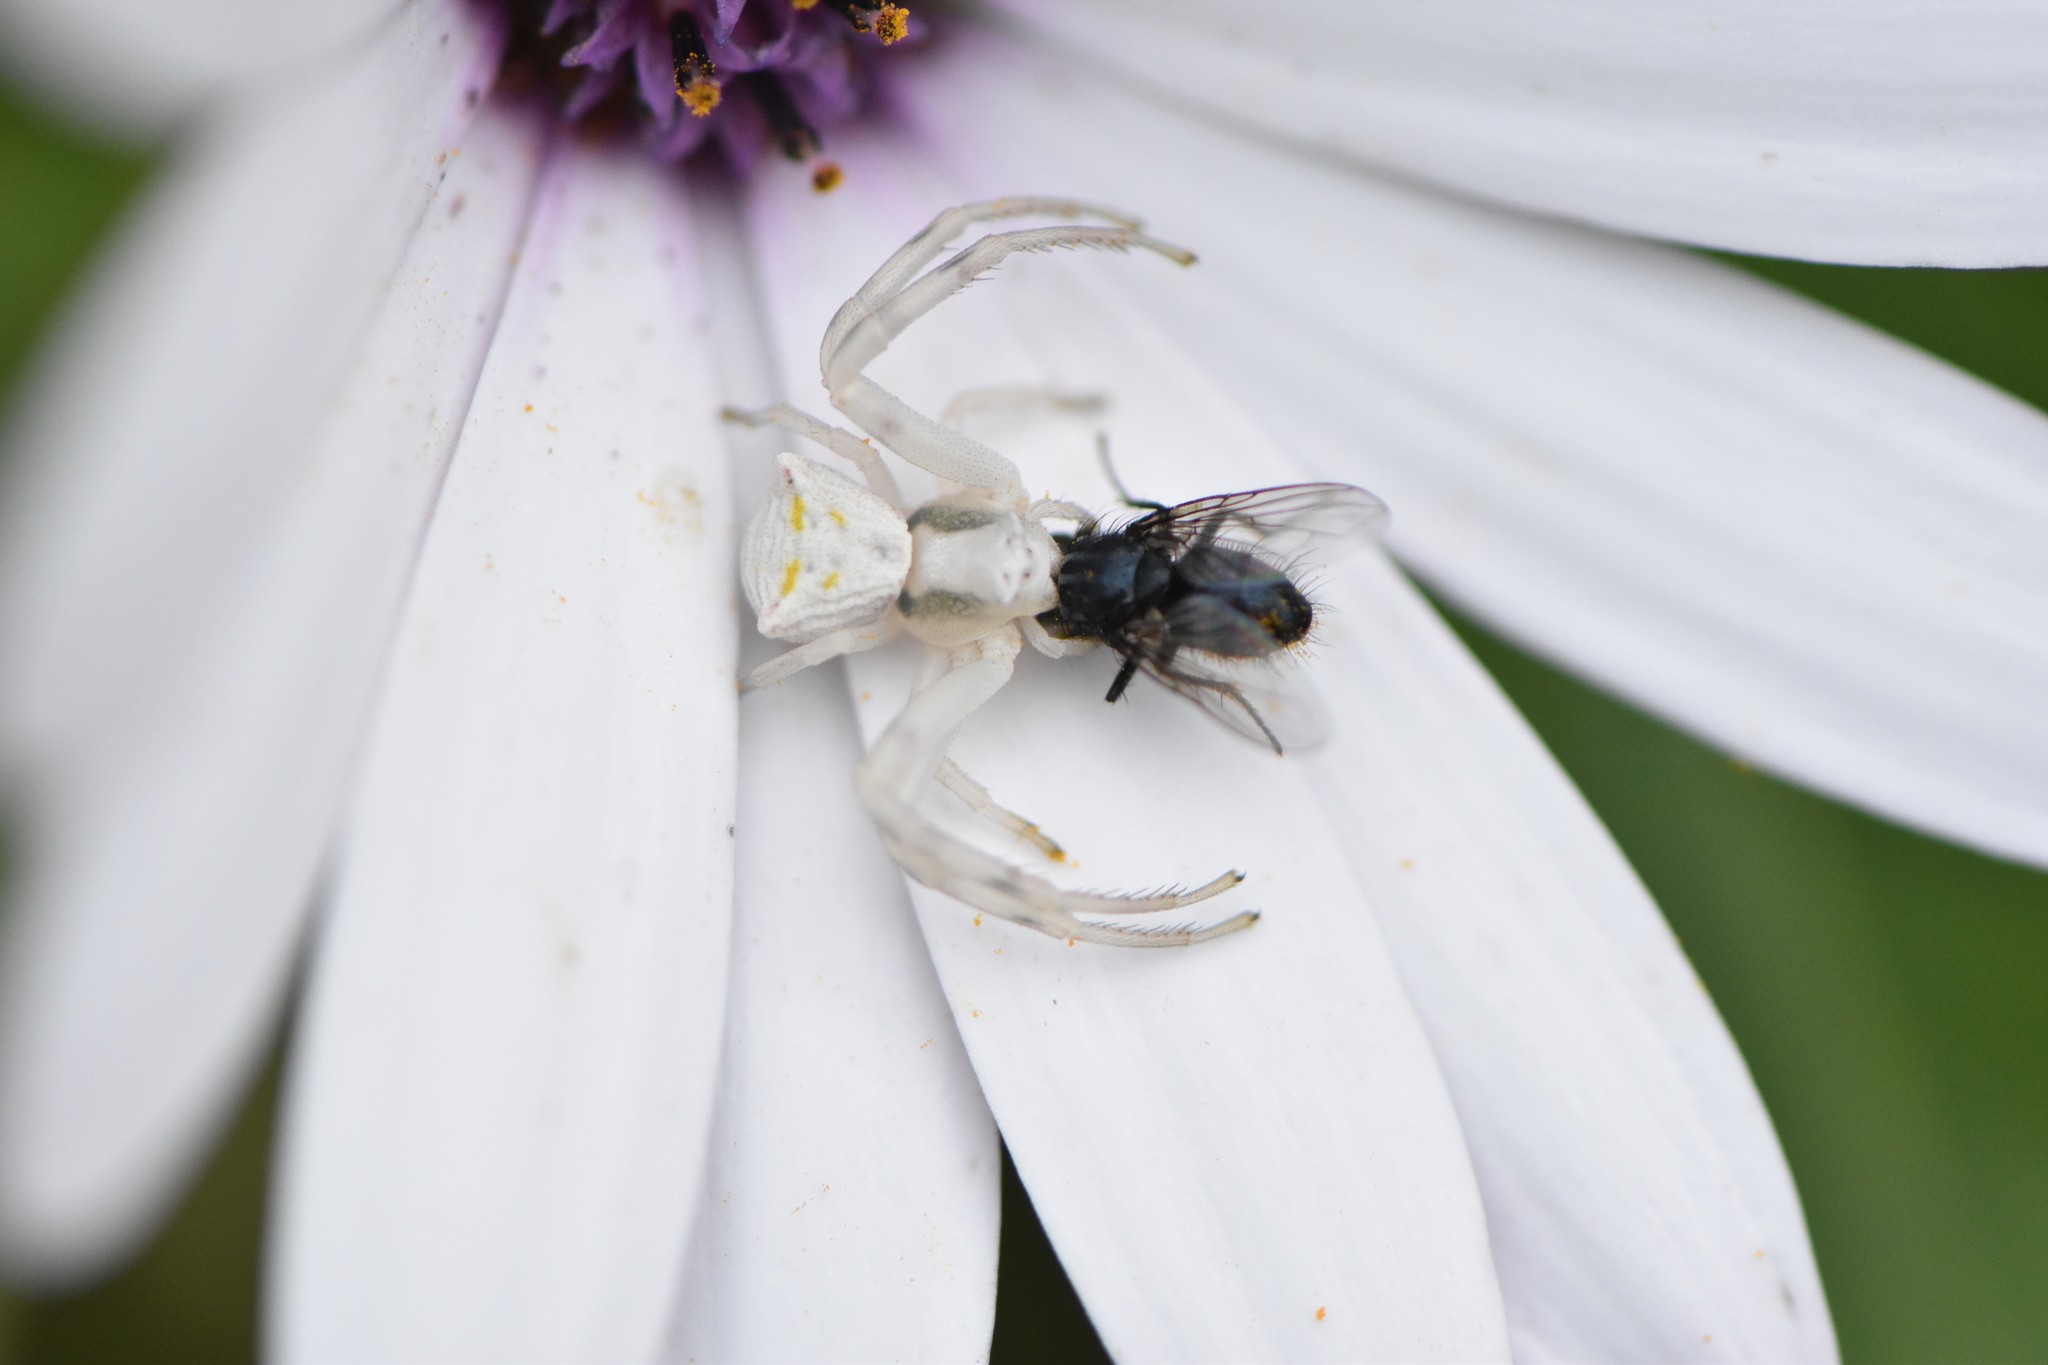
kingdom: Animalia
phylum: Arthropoda
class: Arachnida
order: Araneae
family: Thomisidae
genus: Thomisus
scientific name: Thomisus onustus
